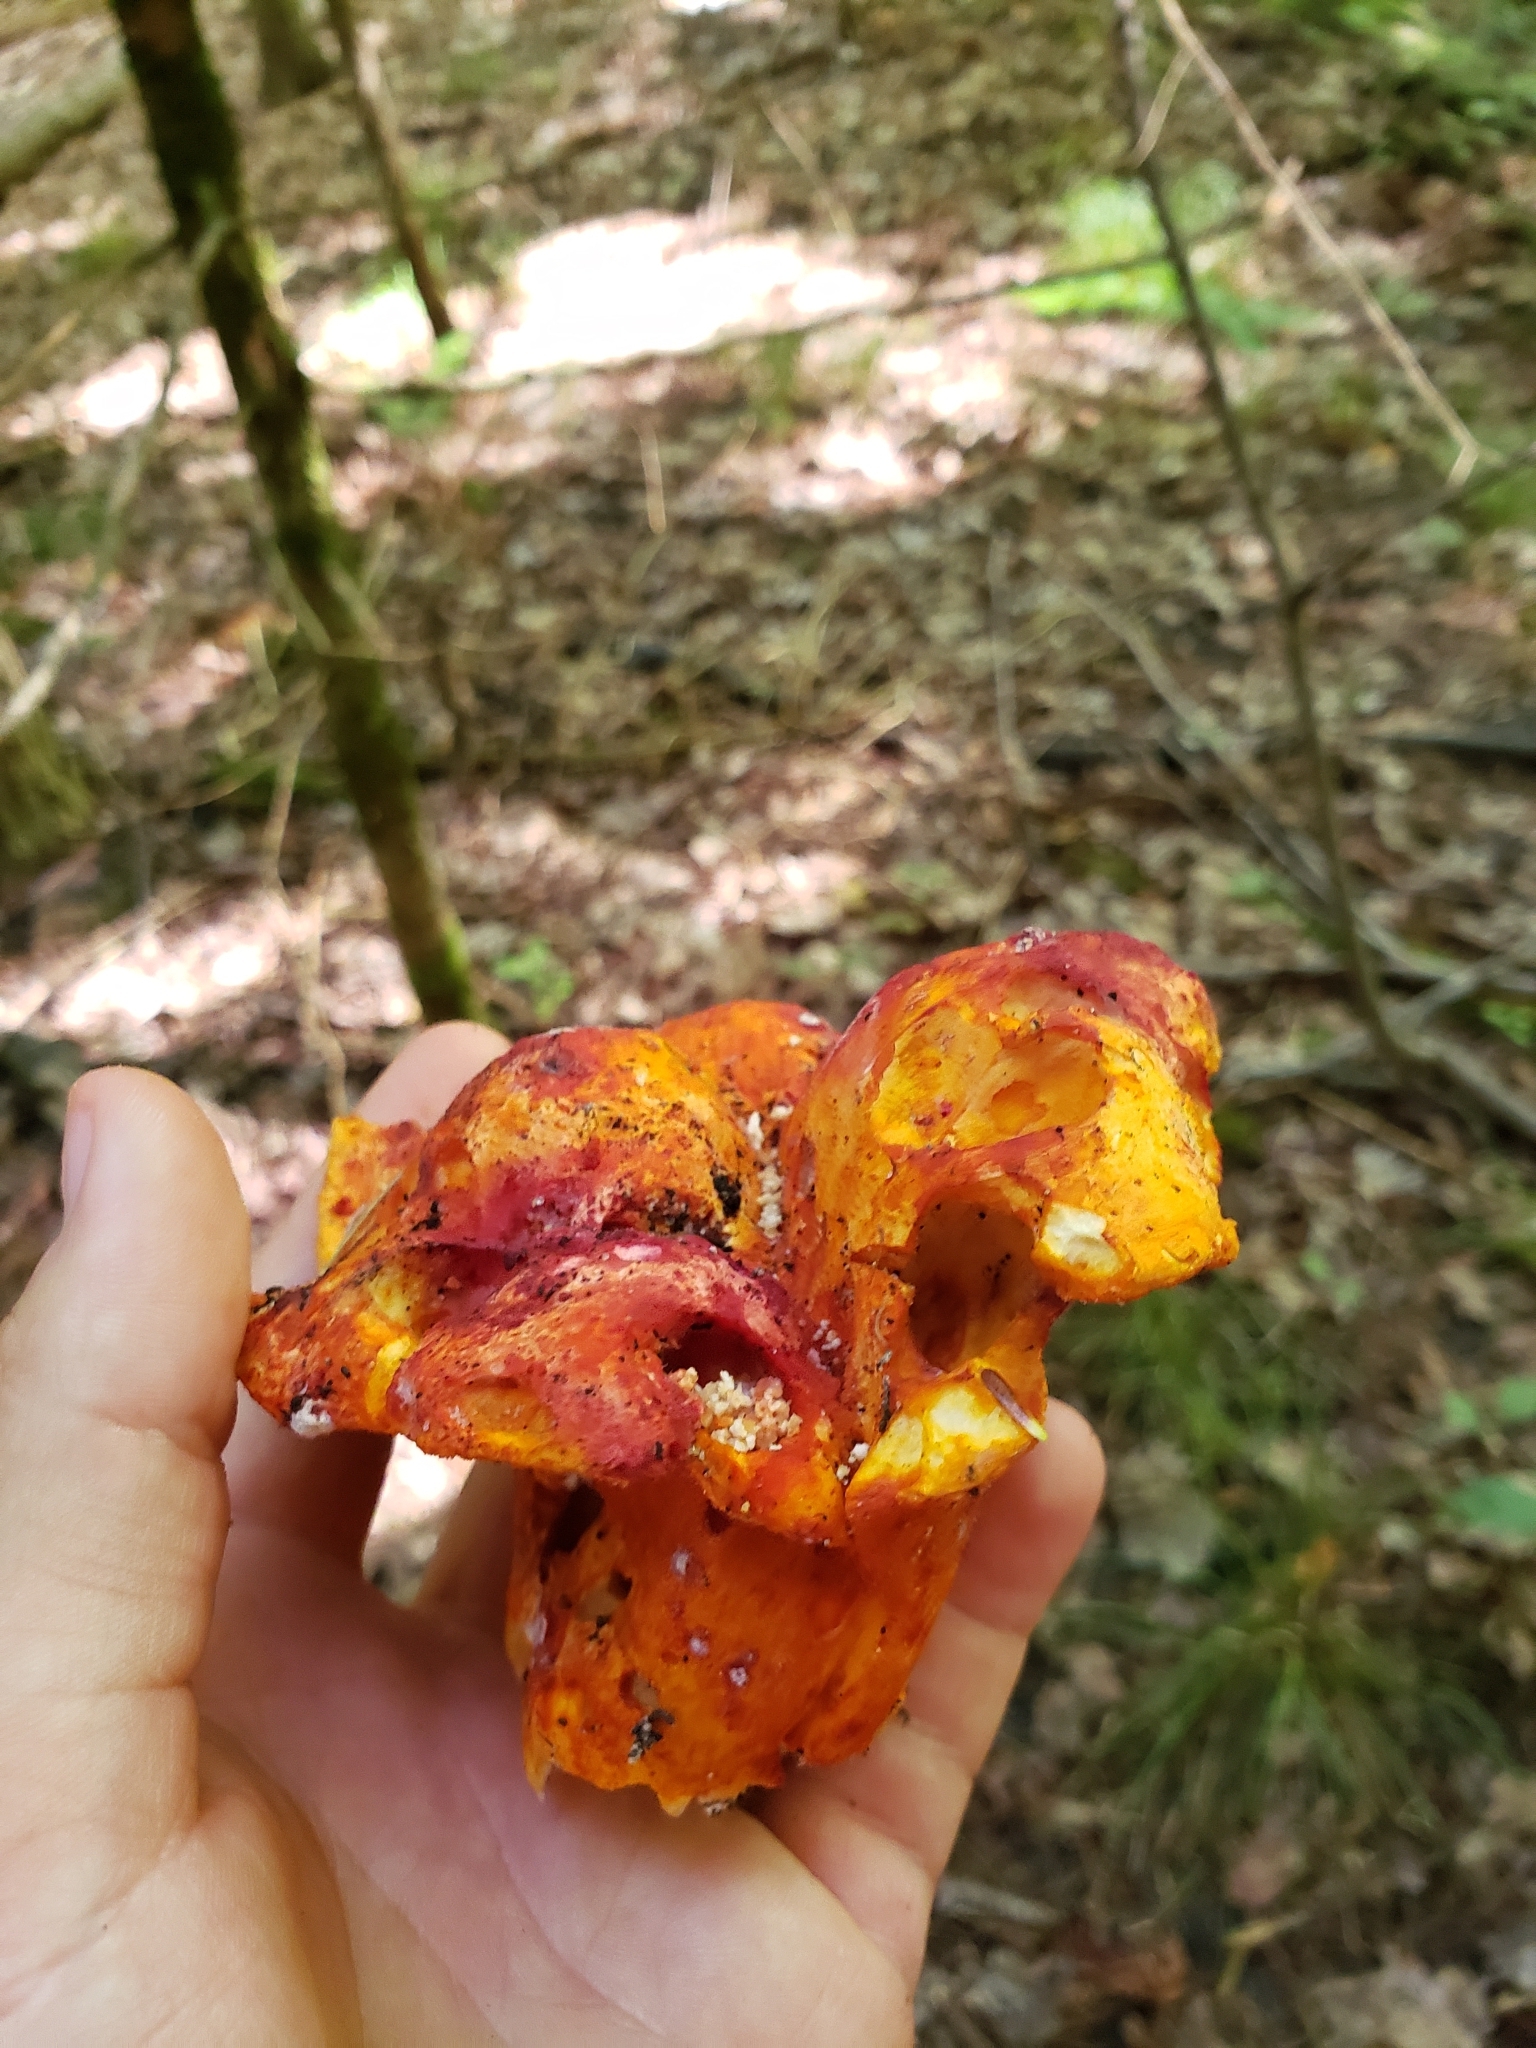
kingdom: Fungi
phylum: Ascomycota
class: Sordariomycetes
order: Hypocreales
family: Hypocreaceae
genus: Hypomyces
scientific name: Hypomyces lactifluorum
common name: Lobster mushroom
